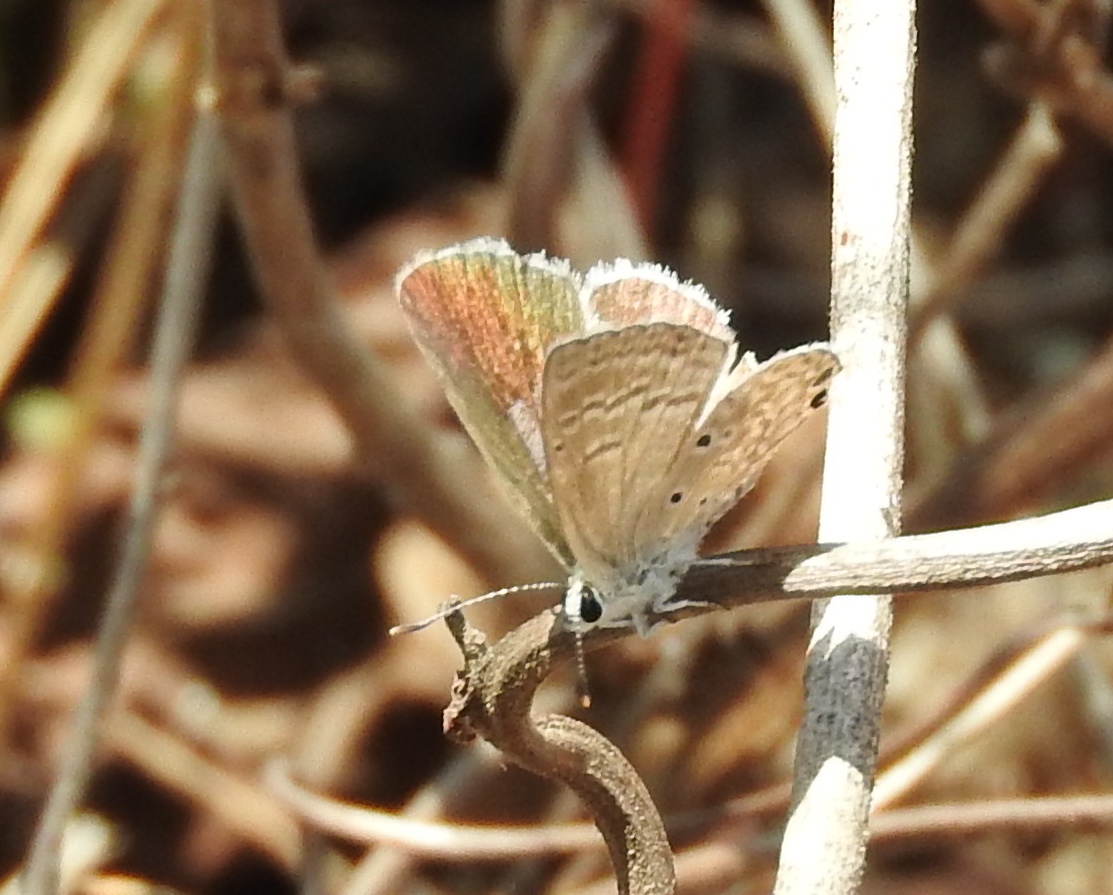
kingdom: Animalia
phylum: Arthropoda
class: Insecta
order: Lepidoptera
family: Lycaenidae
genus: Echinargus
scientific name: Echinargus isola
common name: Reakirt's blue
